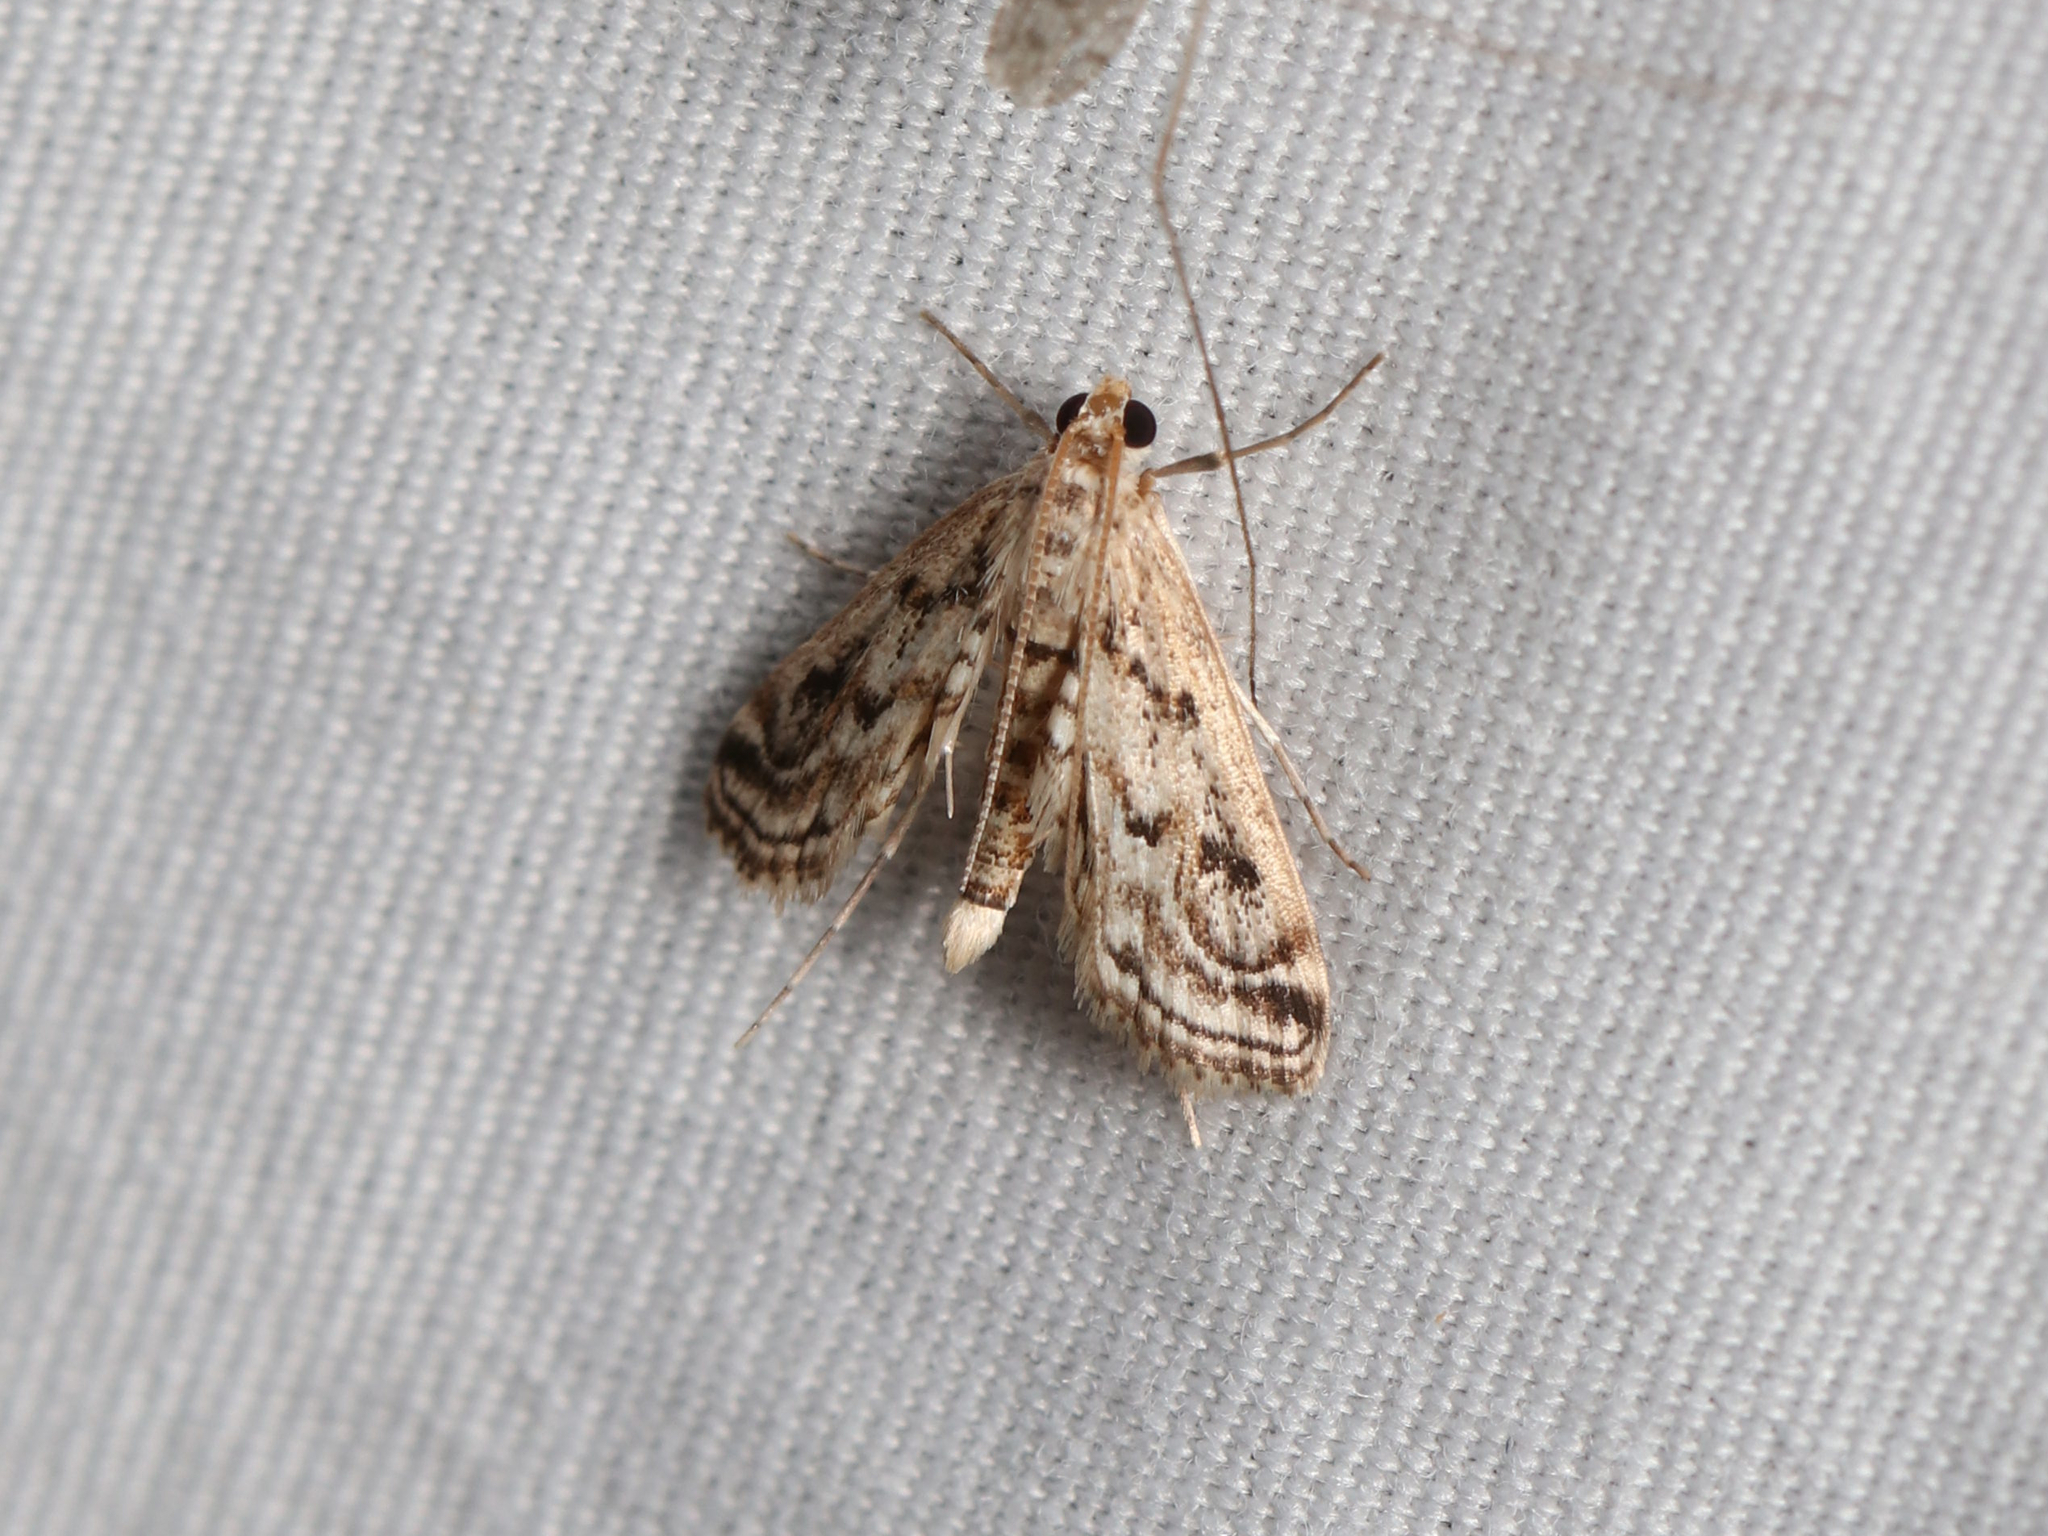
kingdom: Animalia
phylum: Arthropoda
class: Insecta
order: Lepidoptera
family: Crambidae
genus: Parapoynx
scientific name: Parapoynx allionealis
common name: Bladderwort casemaker
